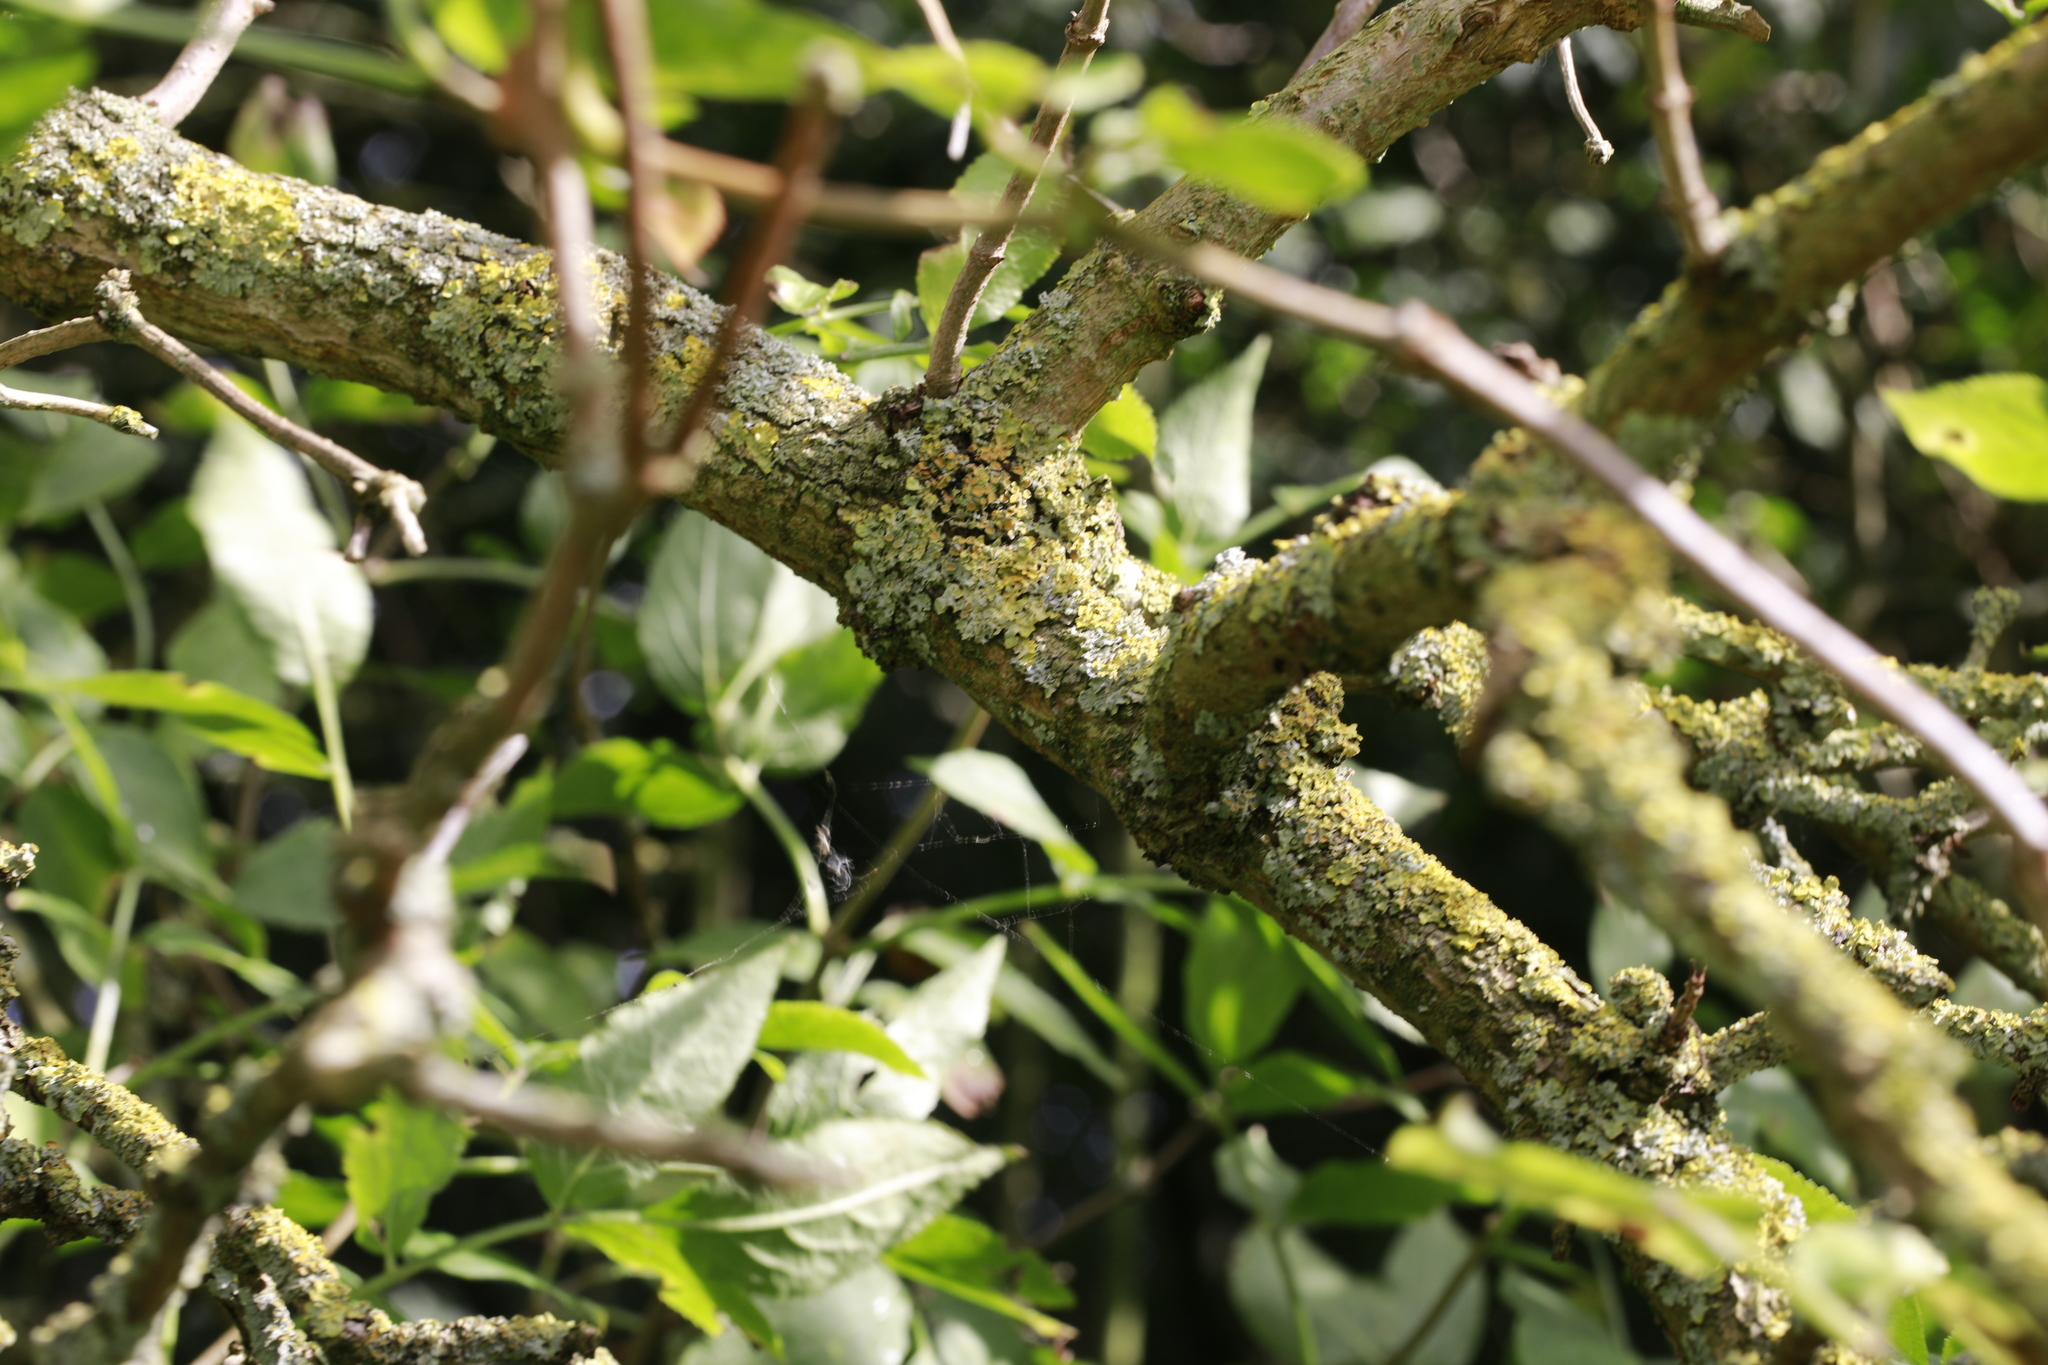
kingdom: Fungi
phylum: Ascomycota
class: Lecanoromycetes
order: Teloschistales
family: Teloschistaceae
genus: Xanthoria
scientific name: Xanthoria parietina
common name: Common orange lichen
